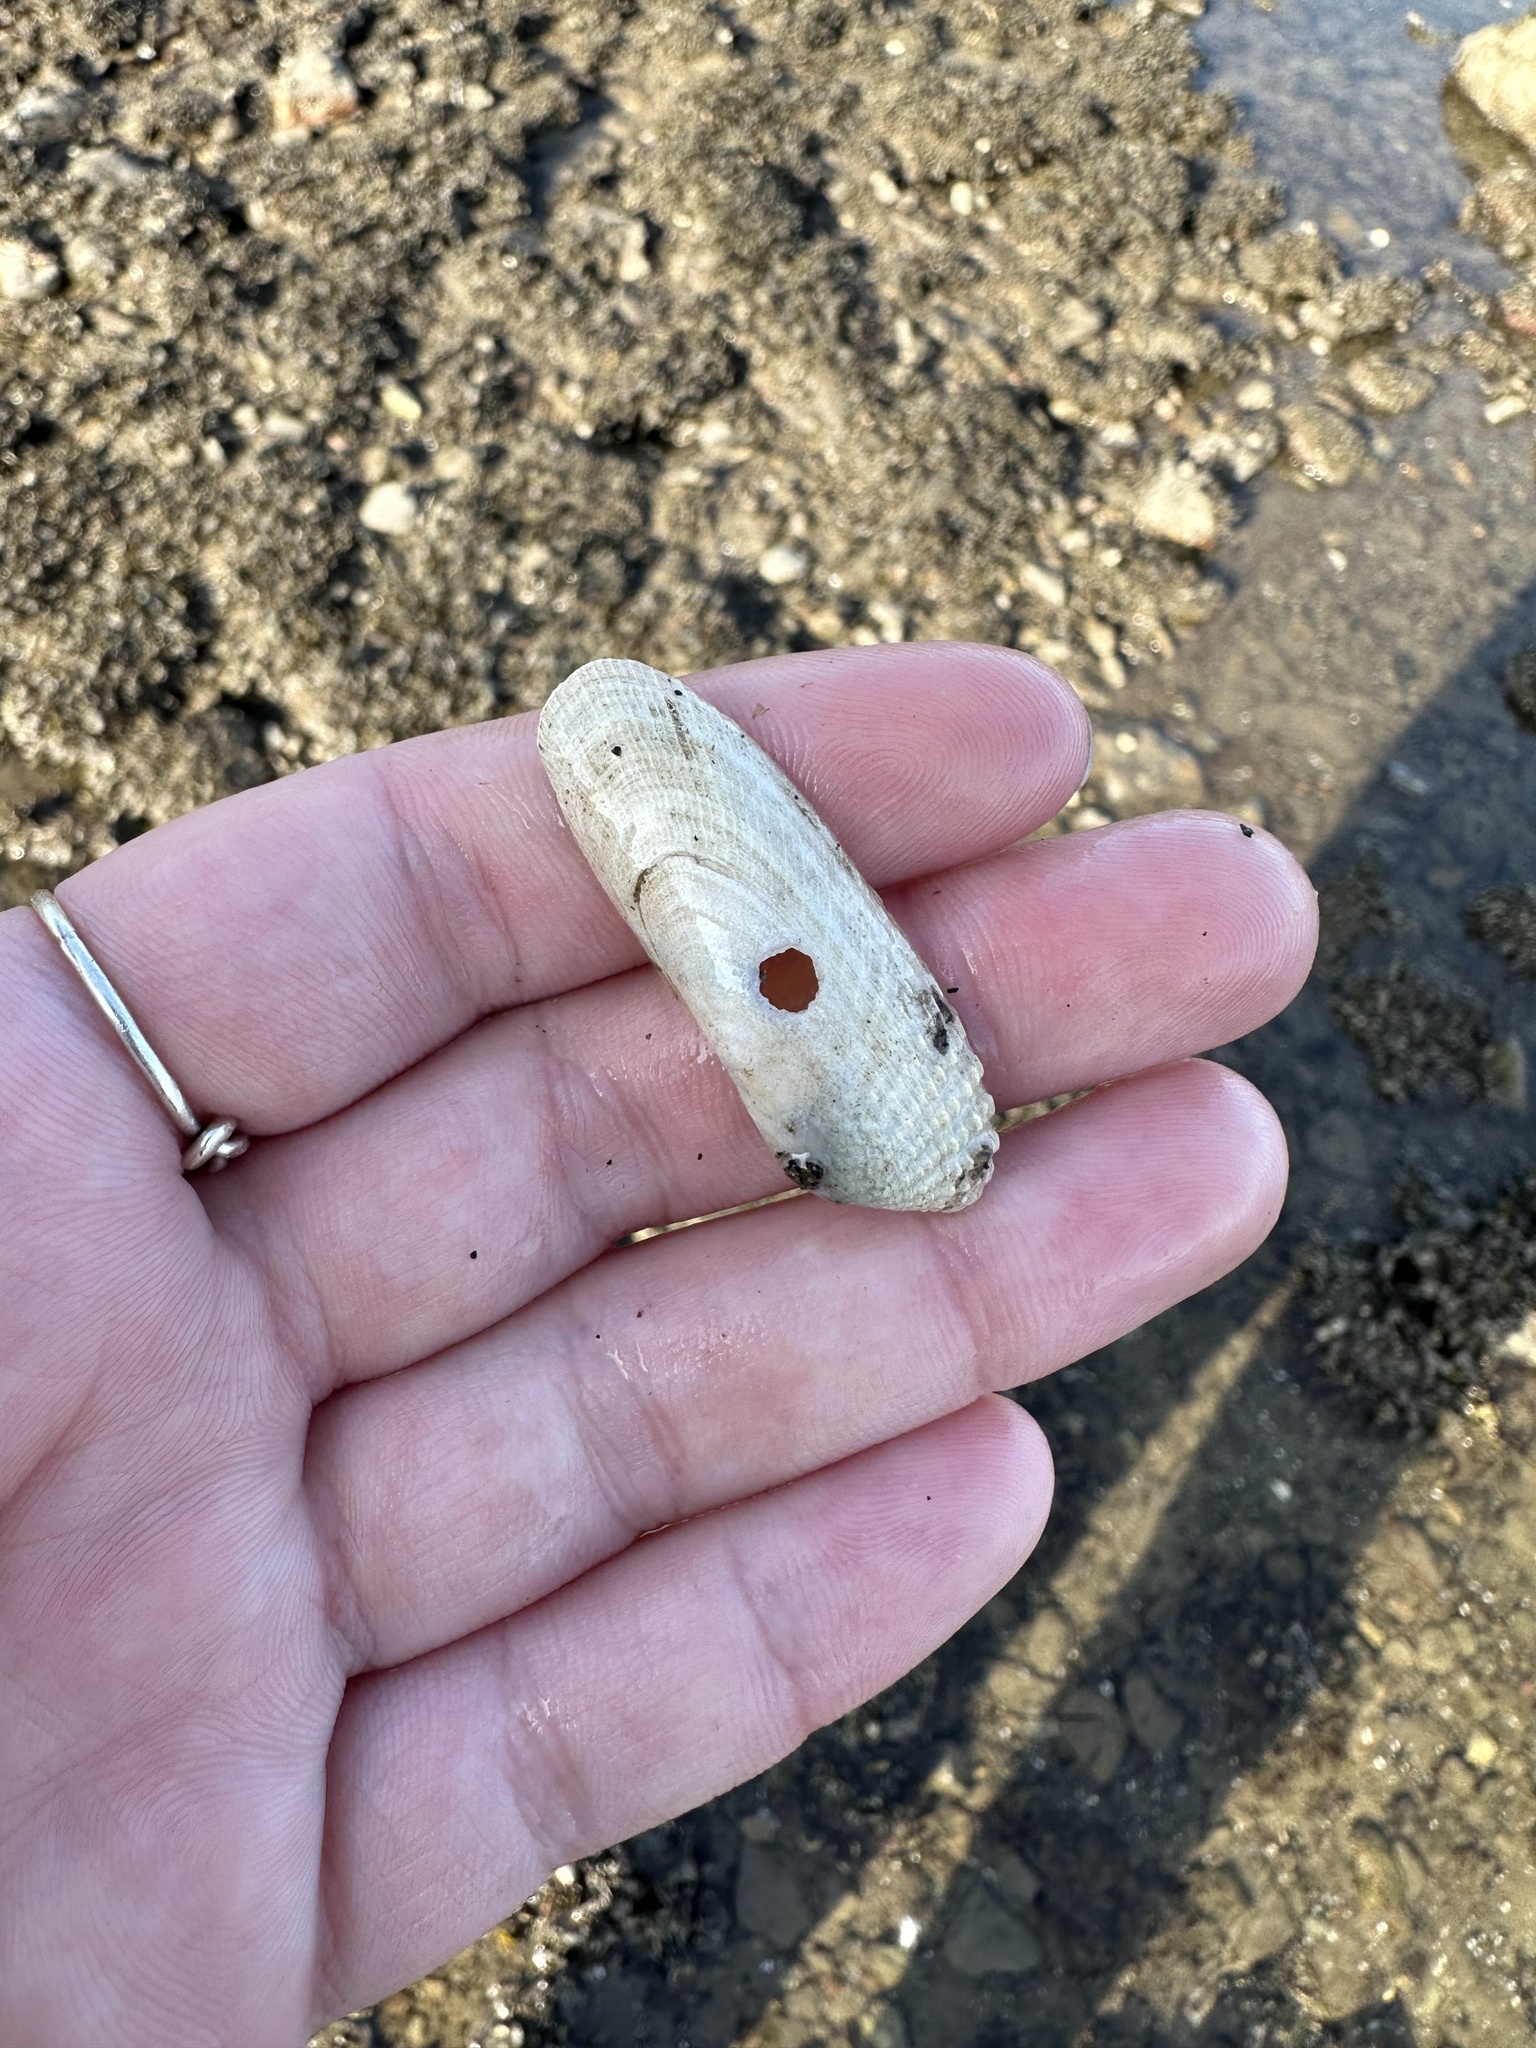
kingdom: Animalia
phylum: Mollusca
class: Bivalvia
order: Venerida
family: Veneridae
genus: Petricolaria
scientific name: Petricolaria pholadiformis
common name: American piddock
